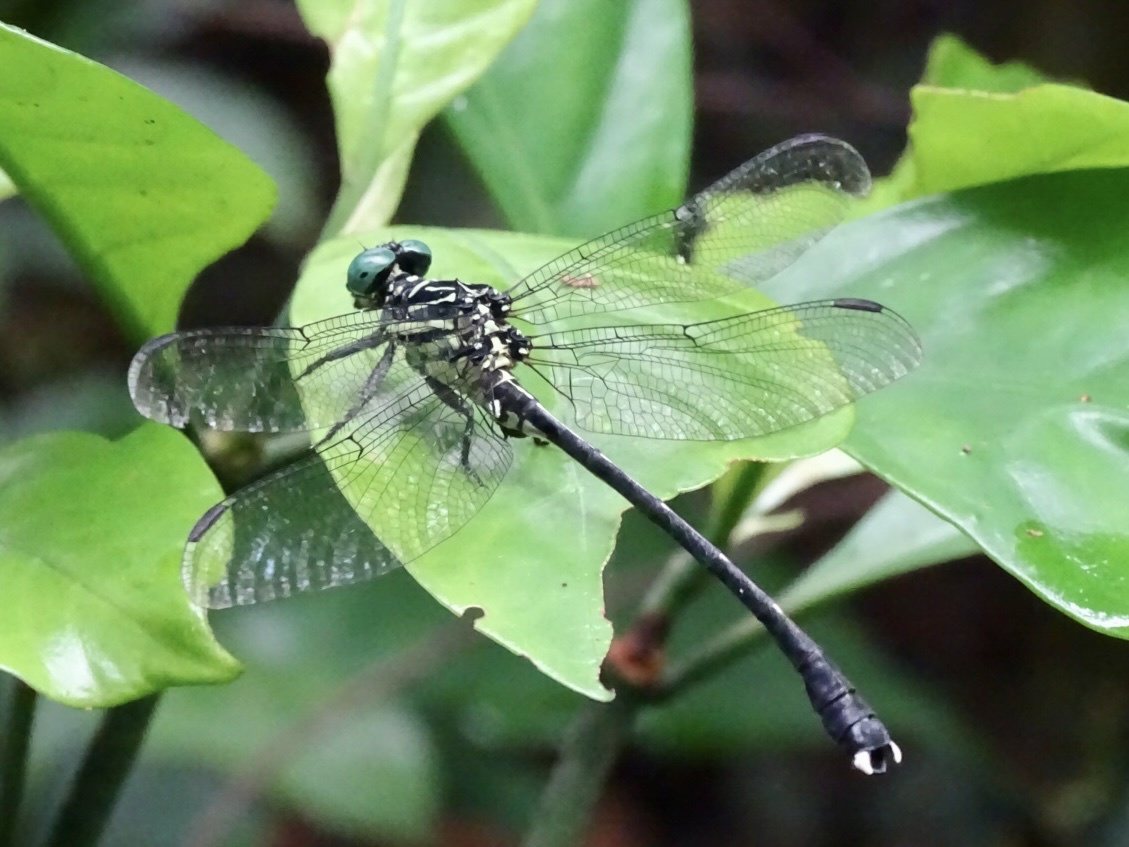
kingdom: Animalia
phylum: Arthropoda
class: Insecta
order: Odonata
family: Gomphidae
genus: Leptogomphus
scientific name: Leptogomphus hongkongensis
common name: Hong kong clubtail
